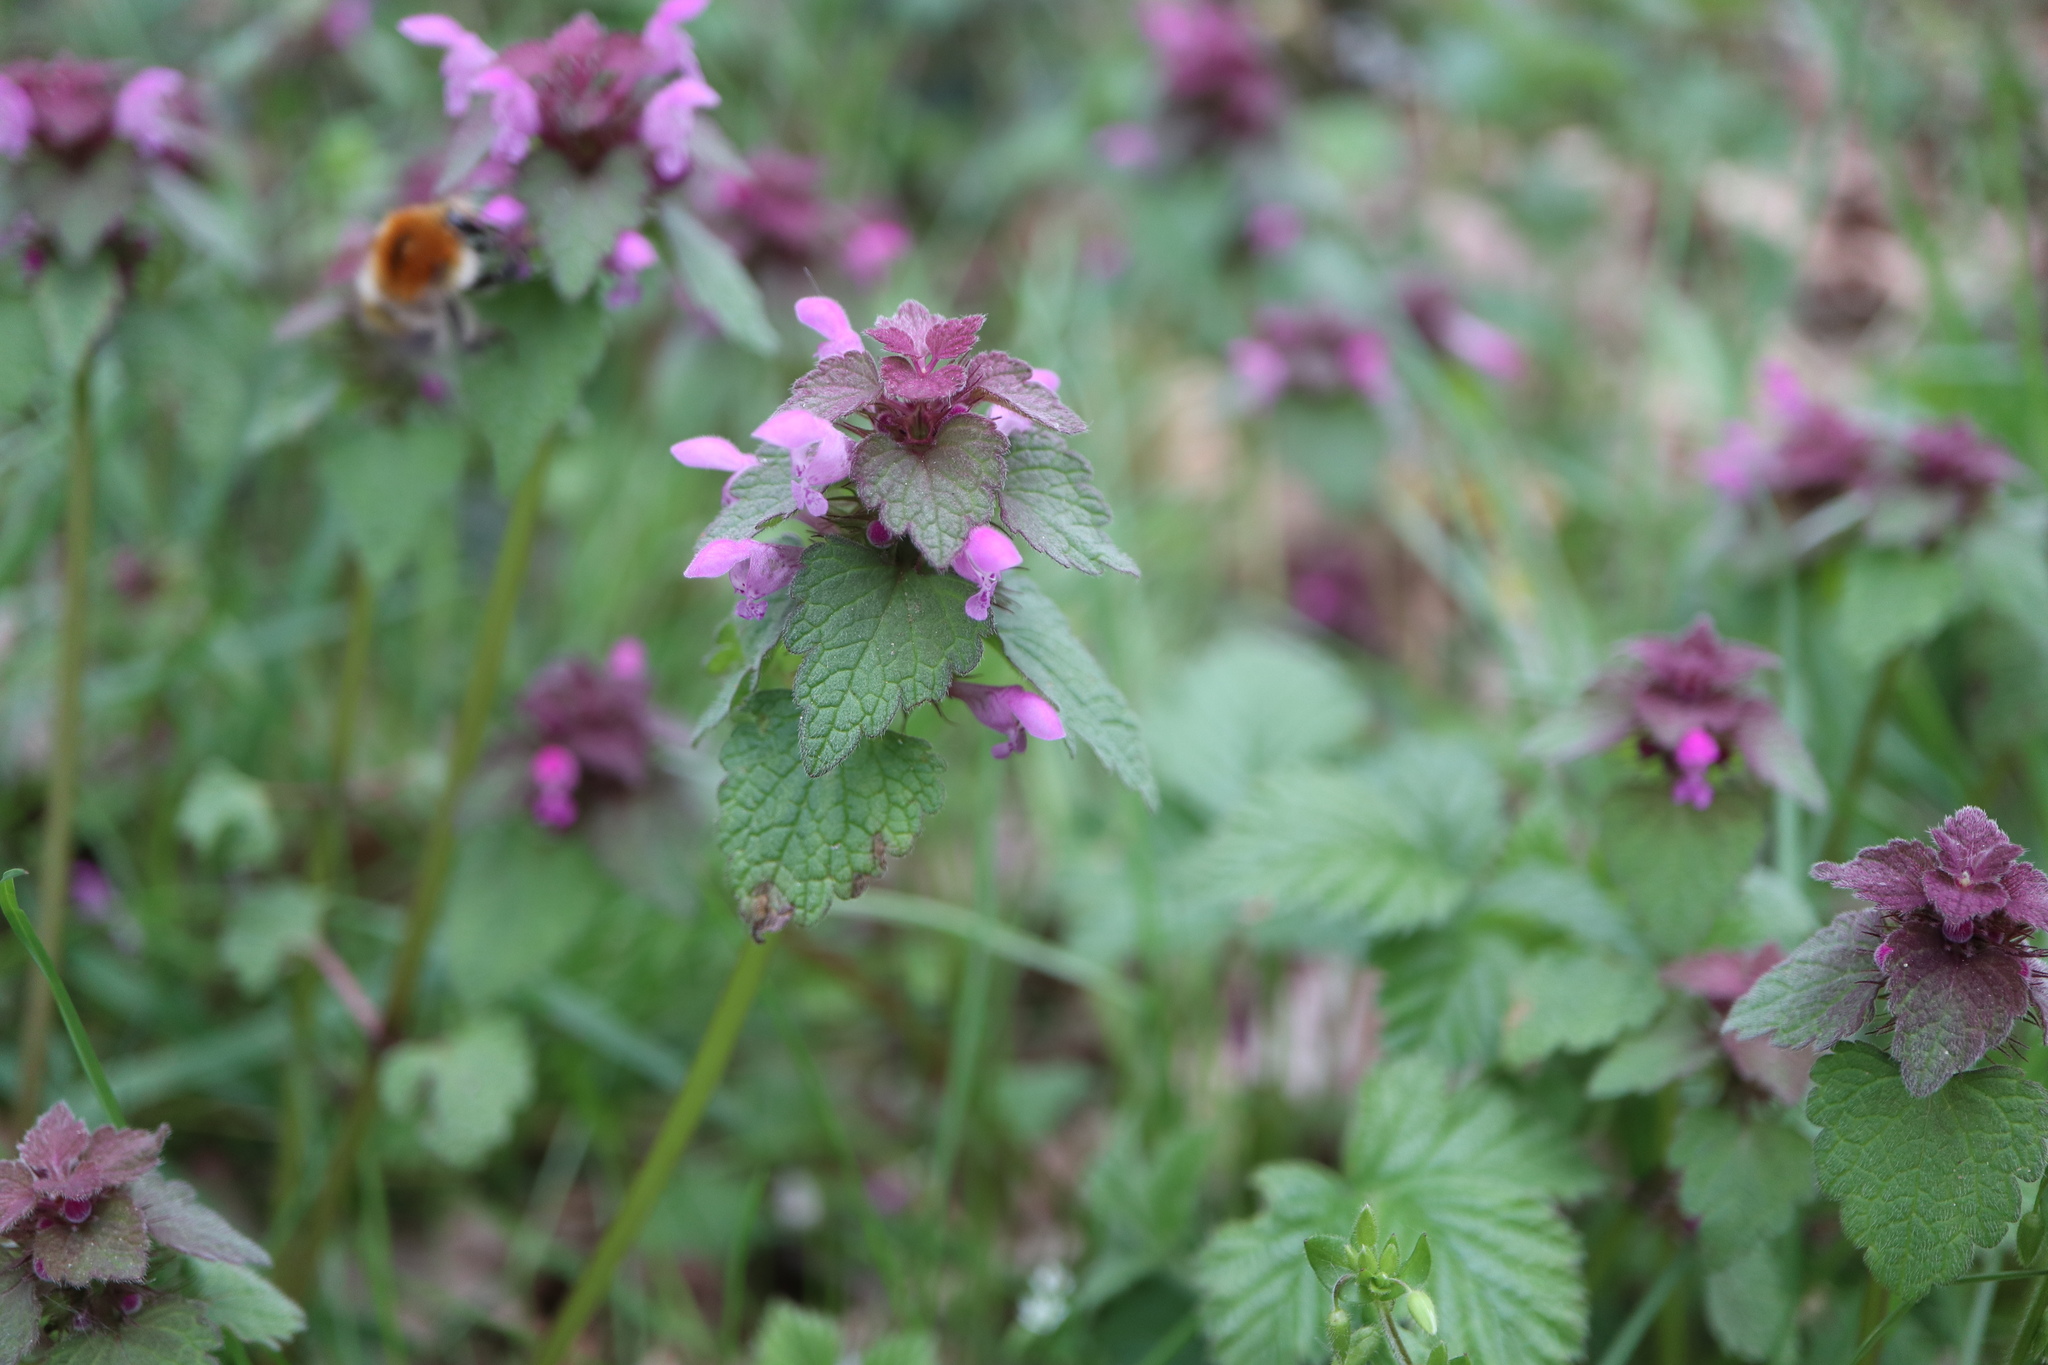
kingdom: Plantae
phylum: Tracheophyta
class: Magnoliopsida
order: Lamiales
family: Lamiaceae
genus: Lamium
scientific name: Lamium purpureum
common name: Red dead-nettle
